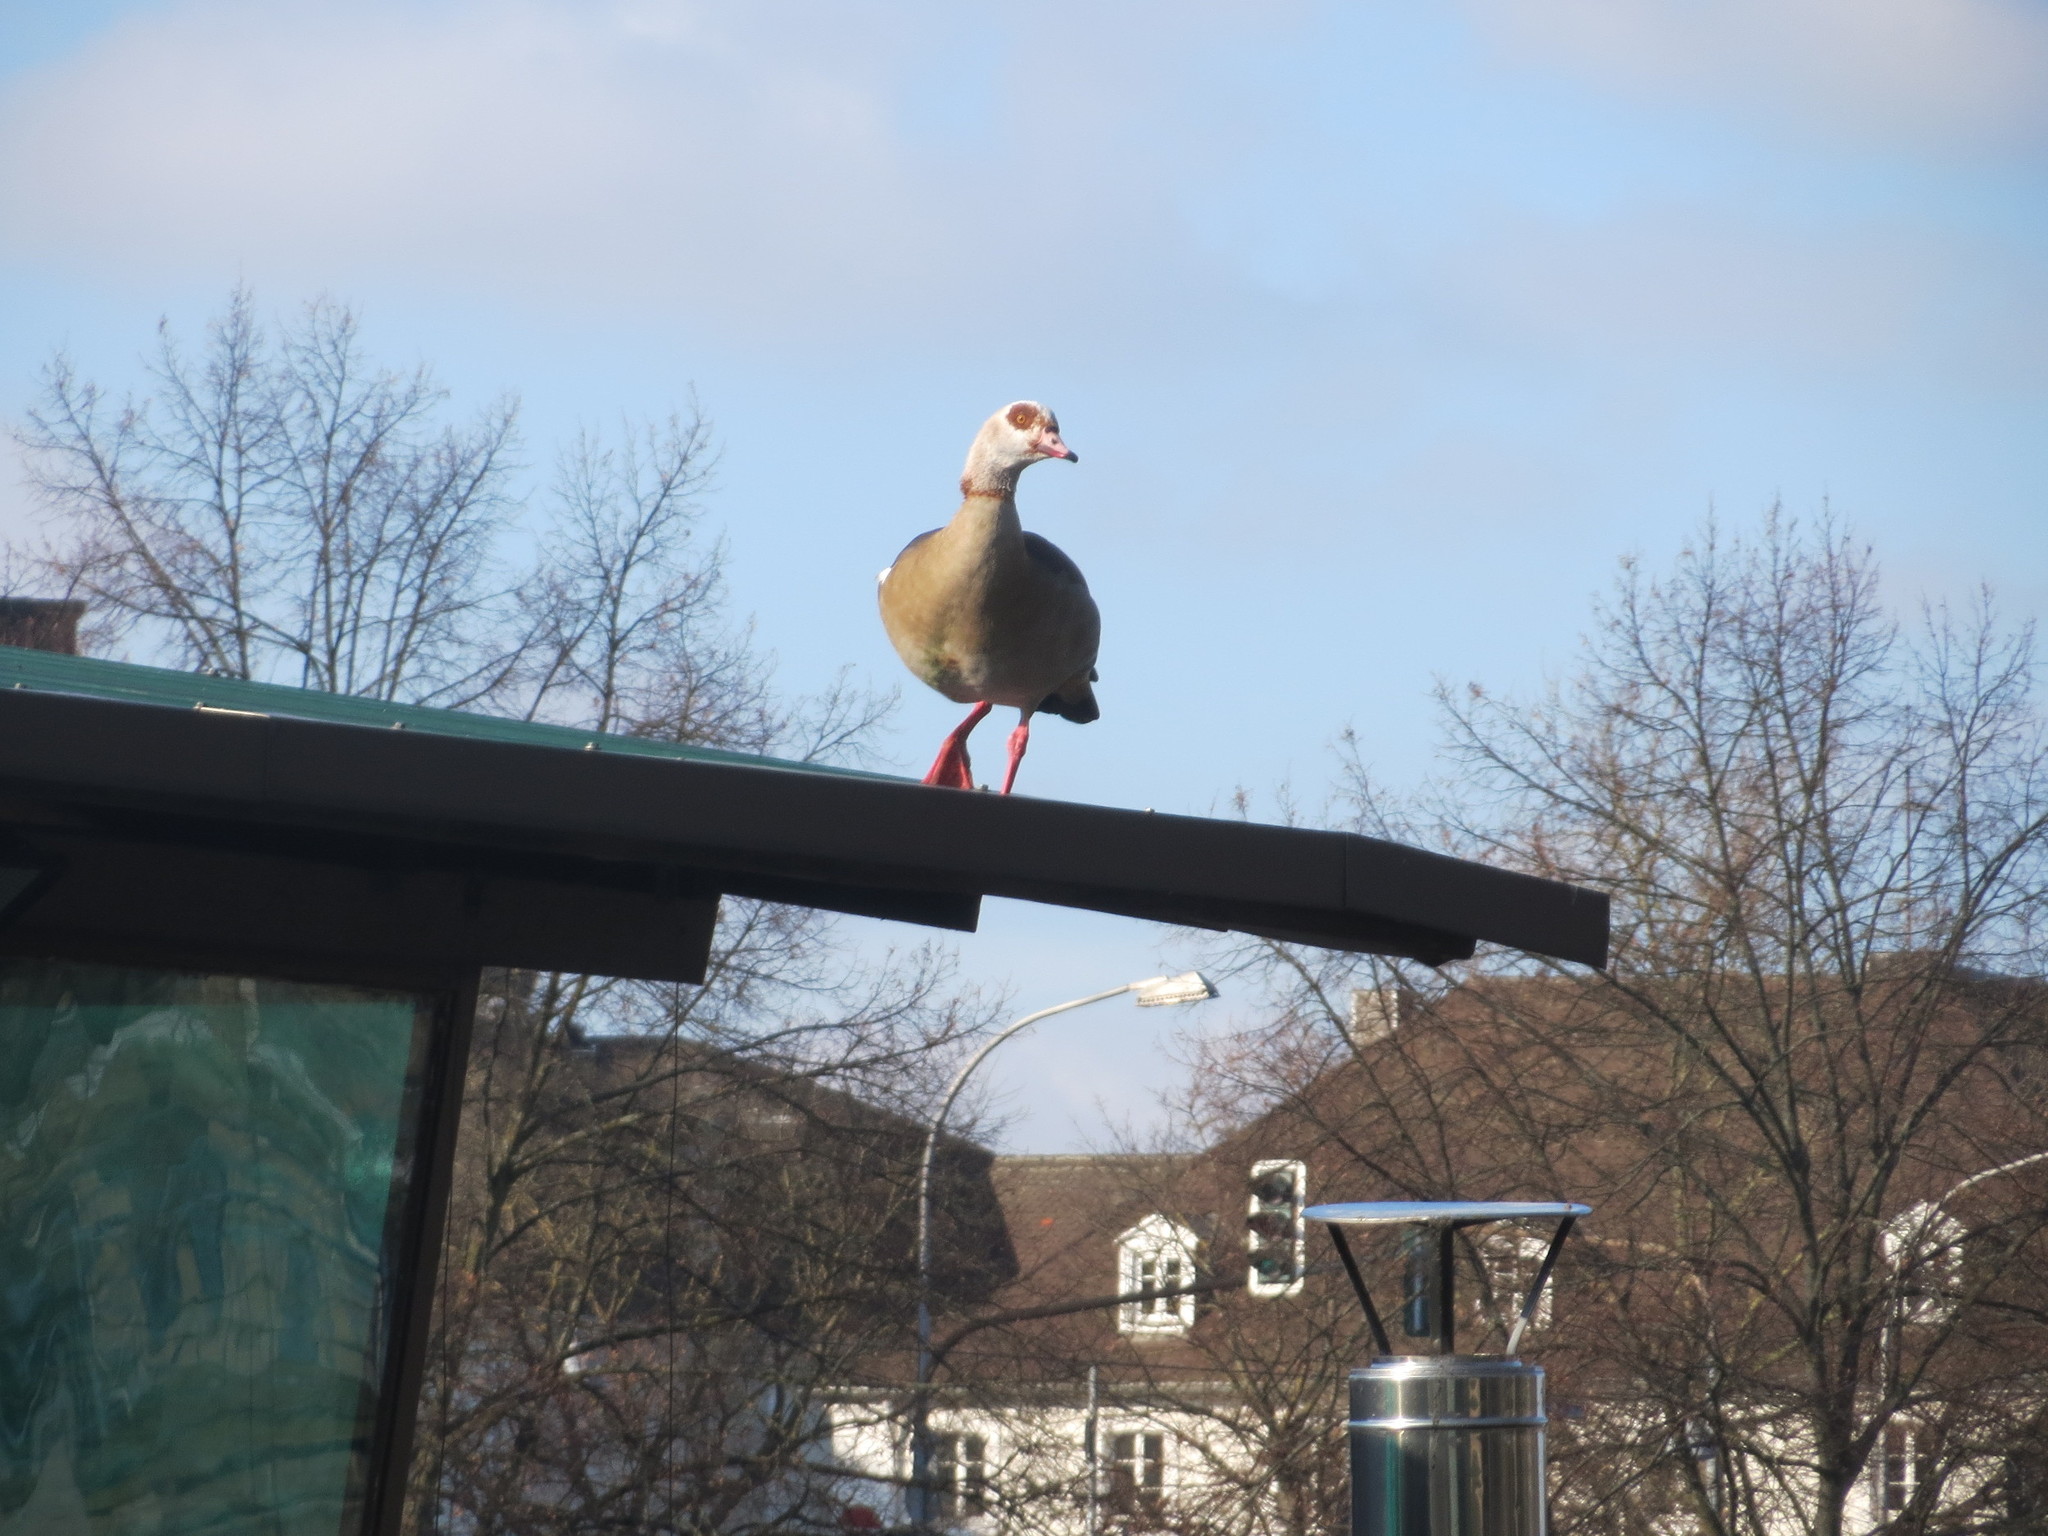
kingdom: Animalia
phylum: Chordata
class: Aves
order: Anseriformes
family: Anatidae
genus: Alopochen
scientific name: Alopochen aegyptiaca
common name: Egyptian goose
